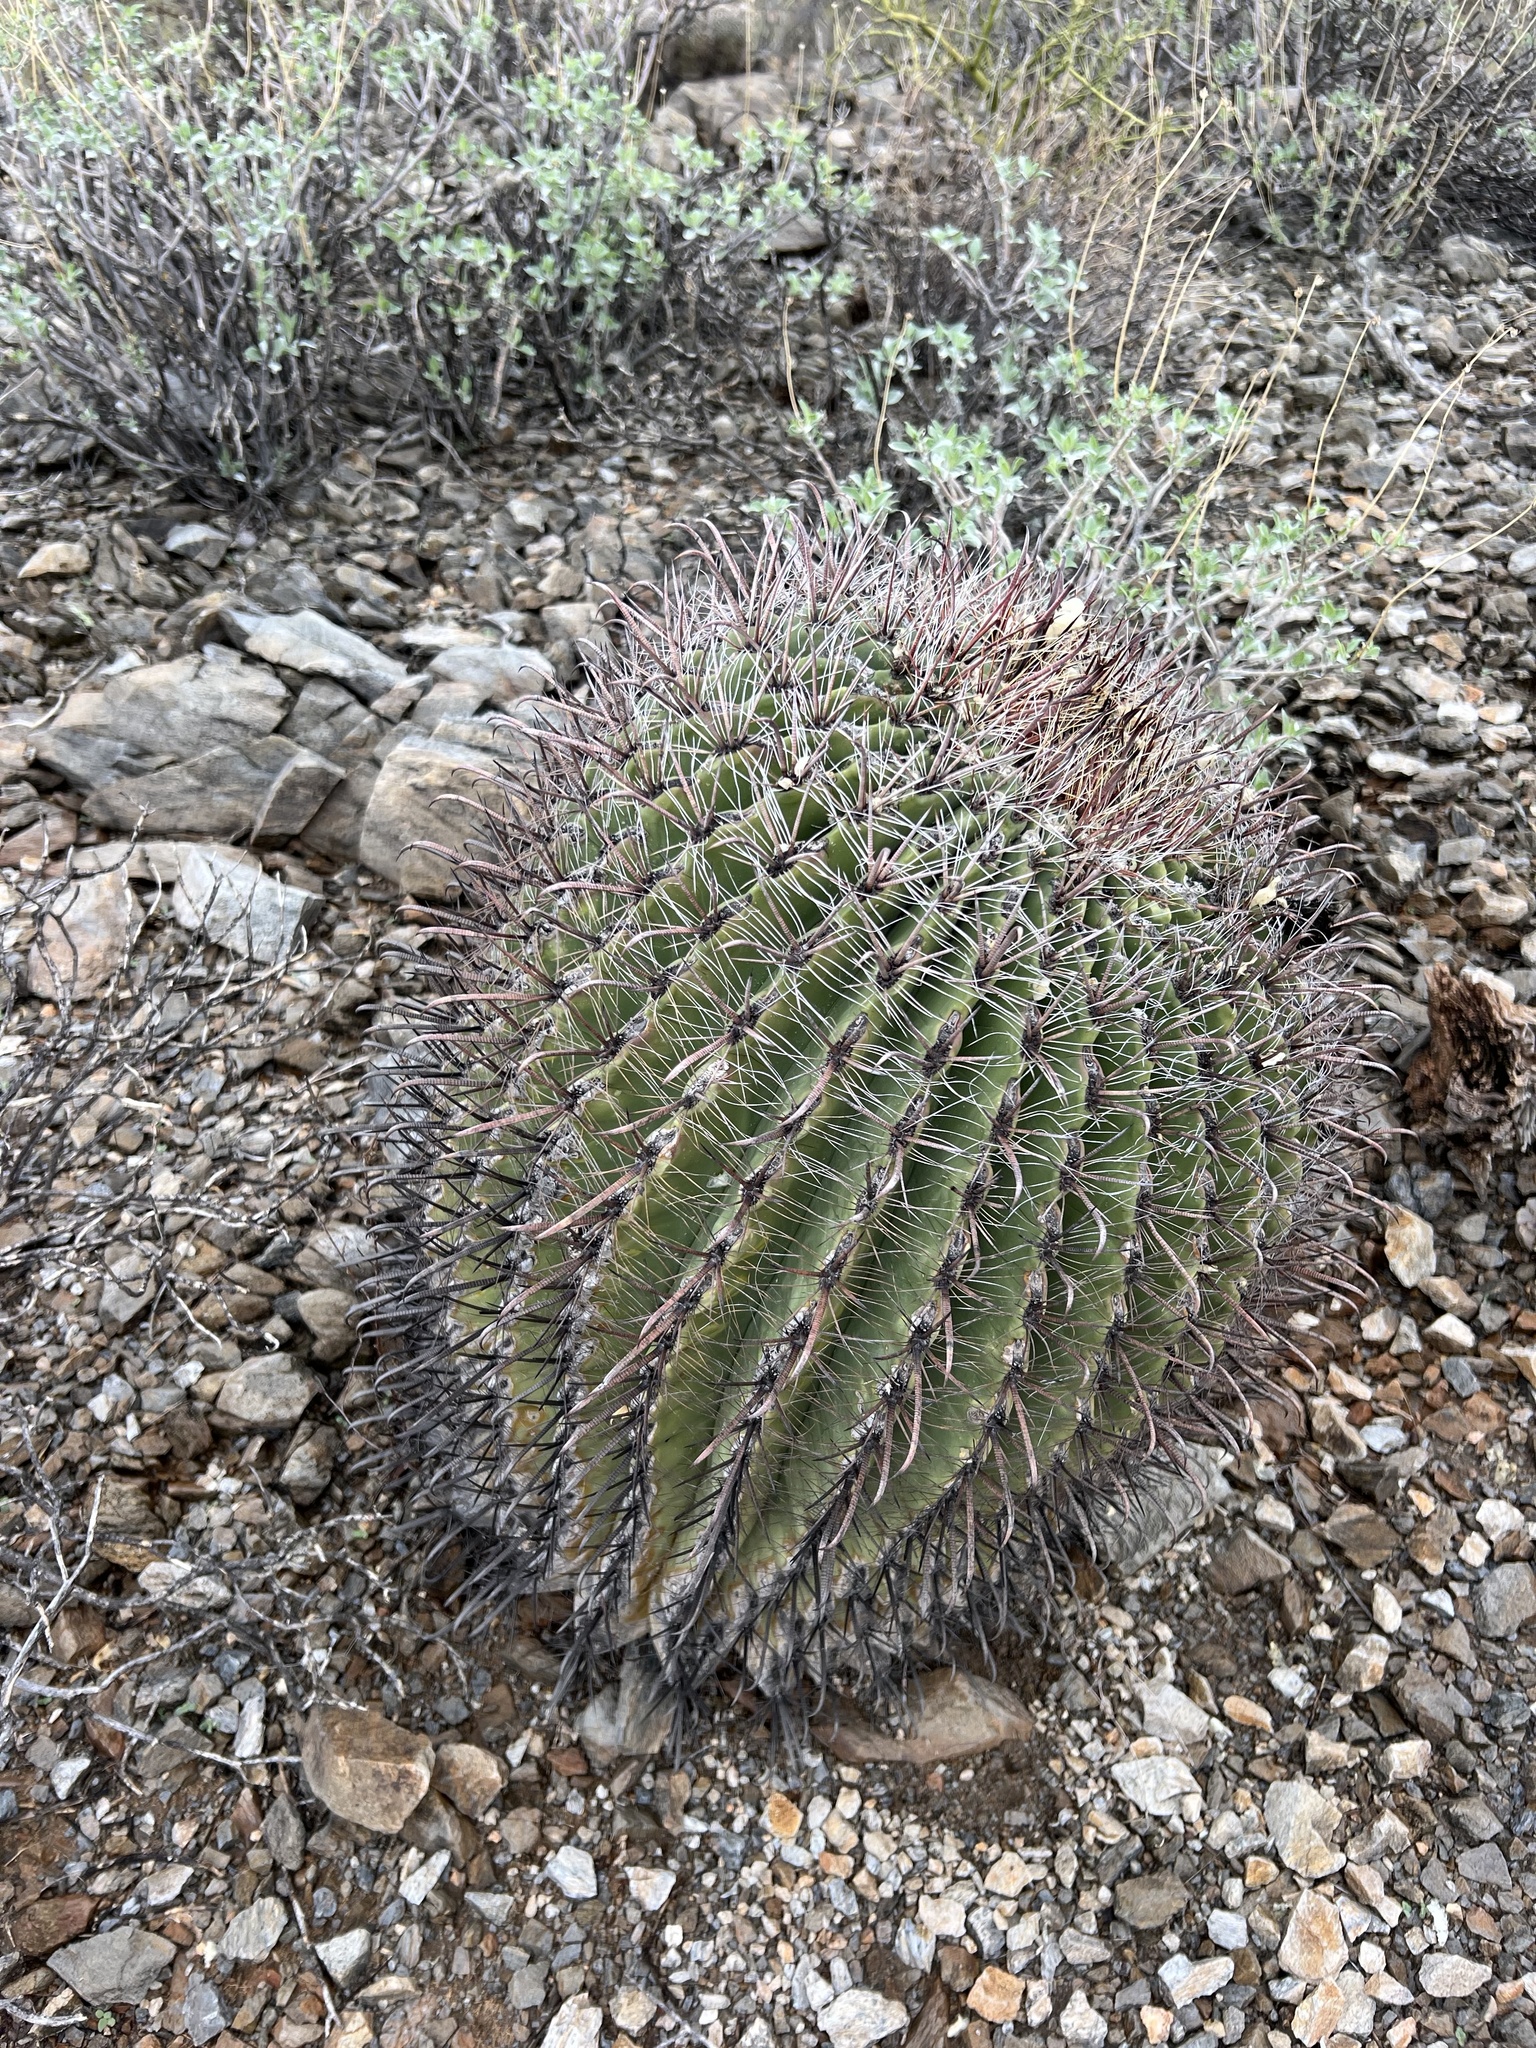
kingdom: Plantae
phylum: Tracheophyta
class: Magnoliopsida
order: Caryophyllales
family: Cactaceae
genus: Ferocactus
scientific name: Ferocactus wislizeni
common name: Candy barrel cactus
